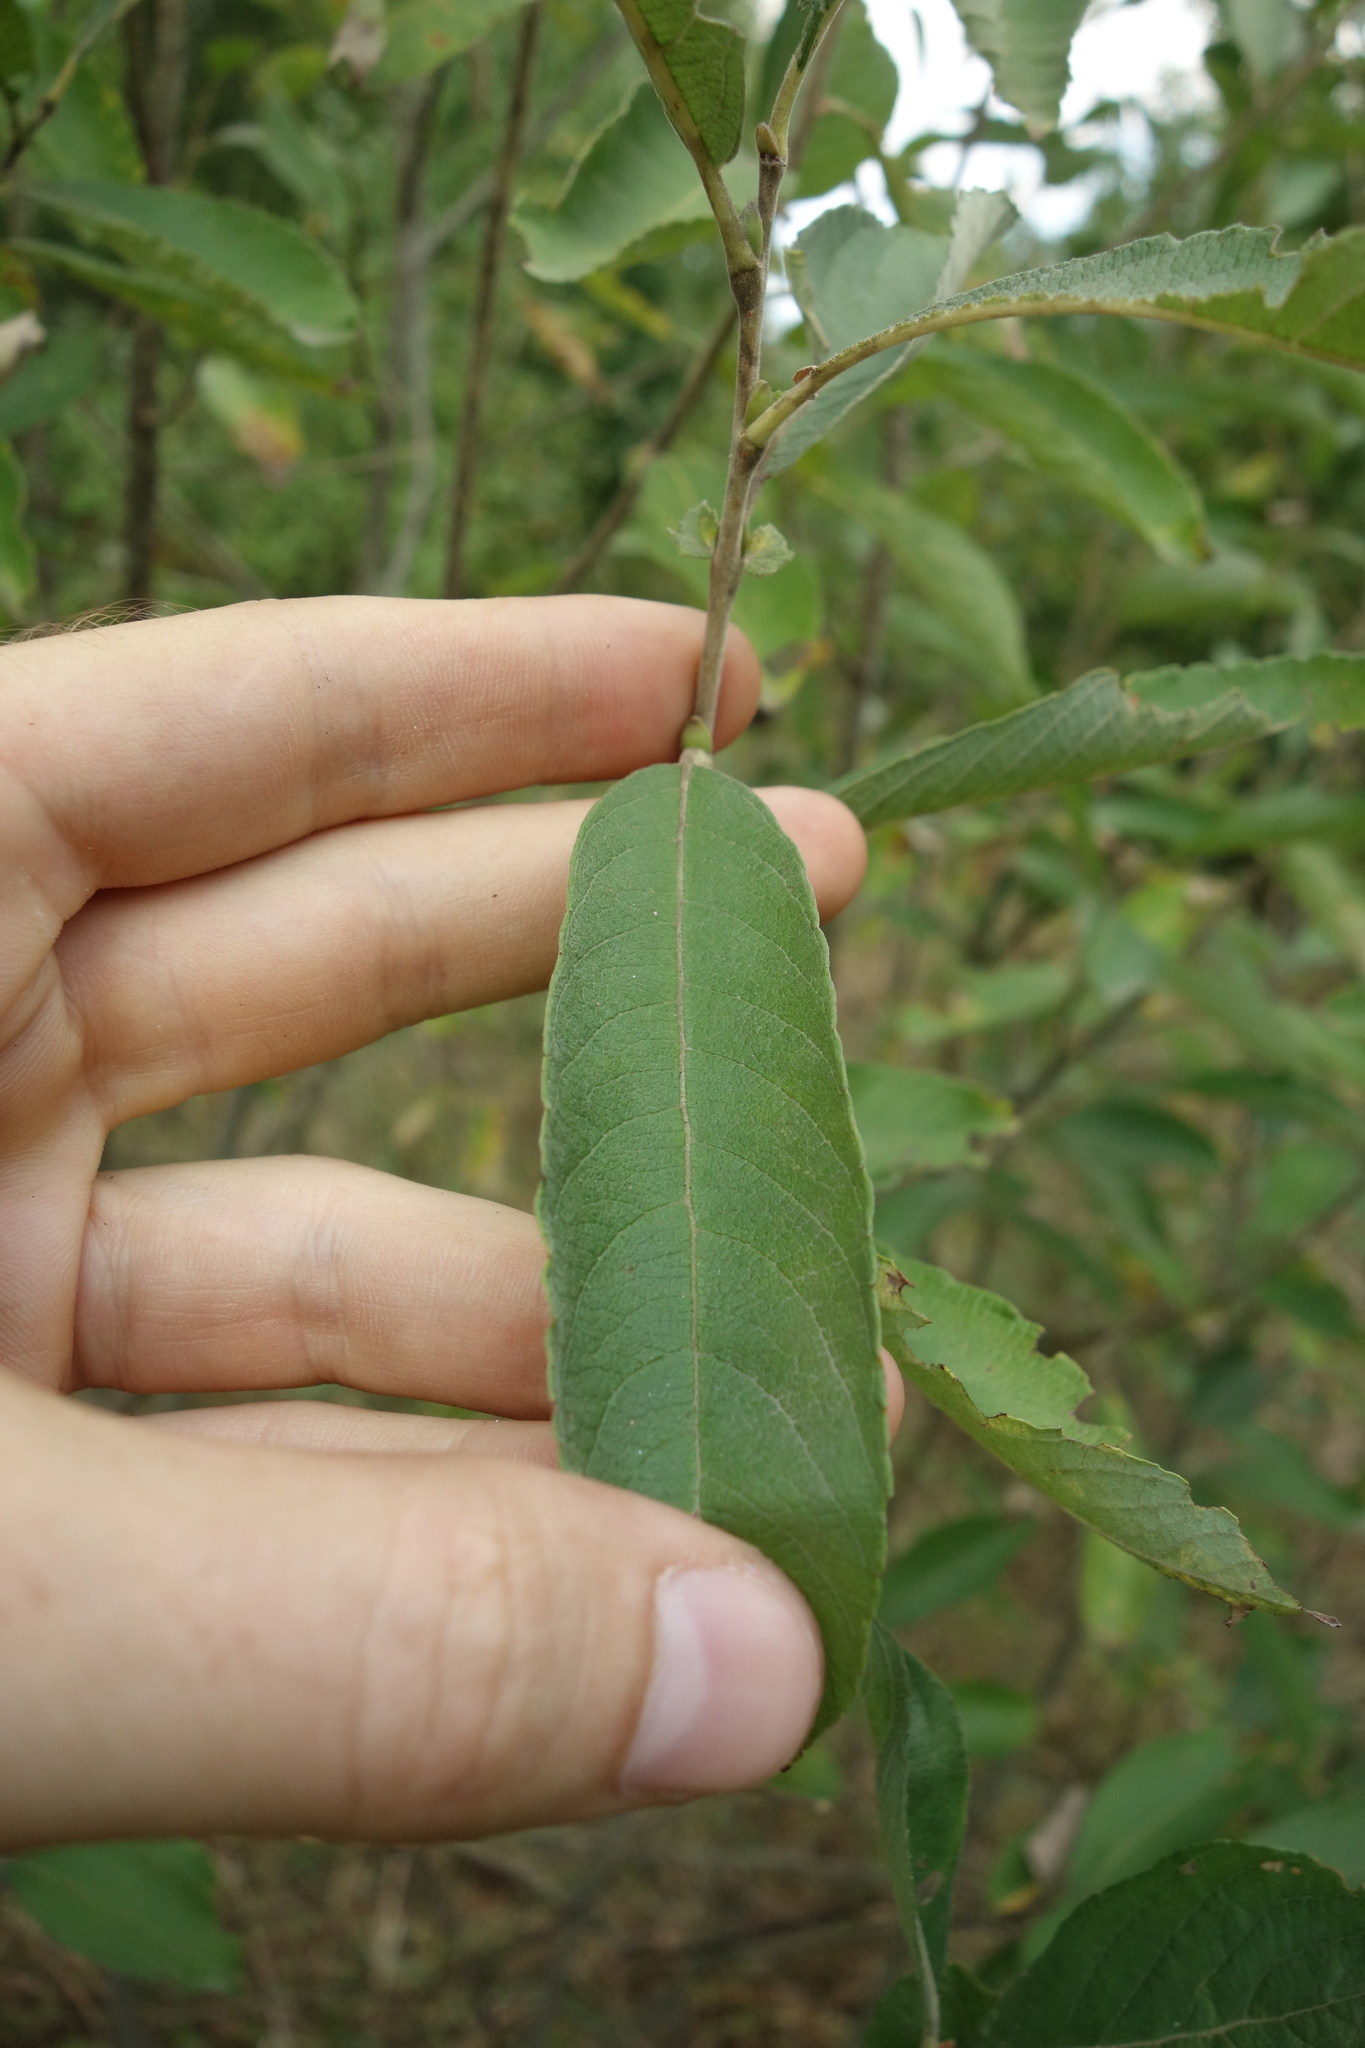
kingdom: Plantae
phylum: Tracheophyta
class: Magnoliopsida
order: Malpighiales
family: Salicaceae
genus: Salix
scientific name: Salix cinerea
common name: Common sallow
